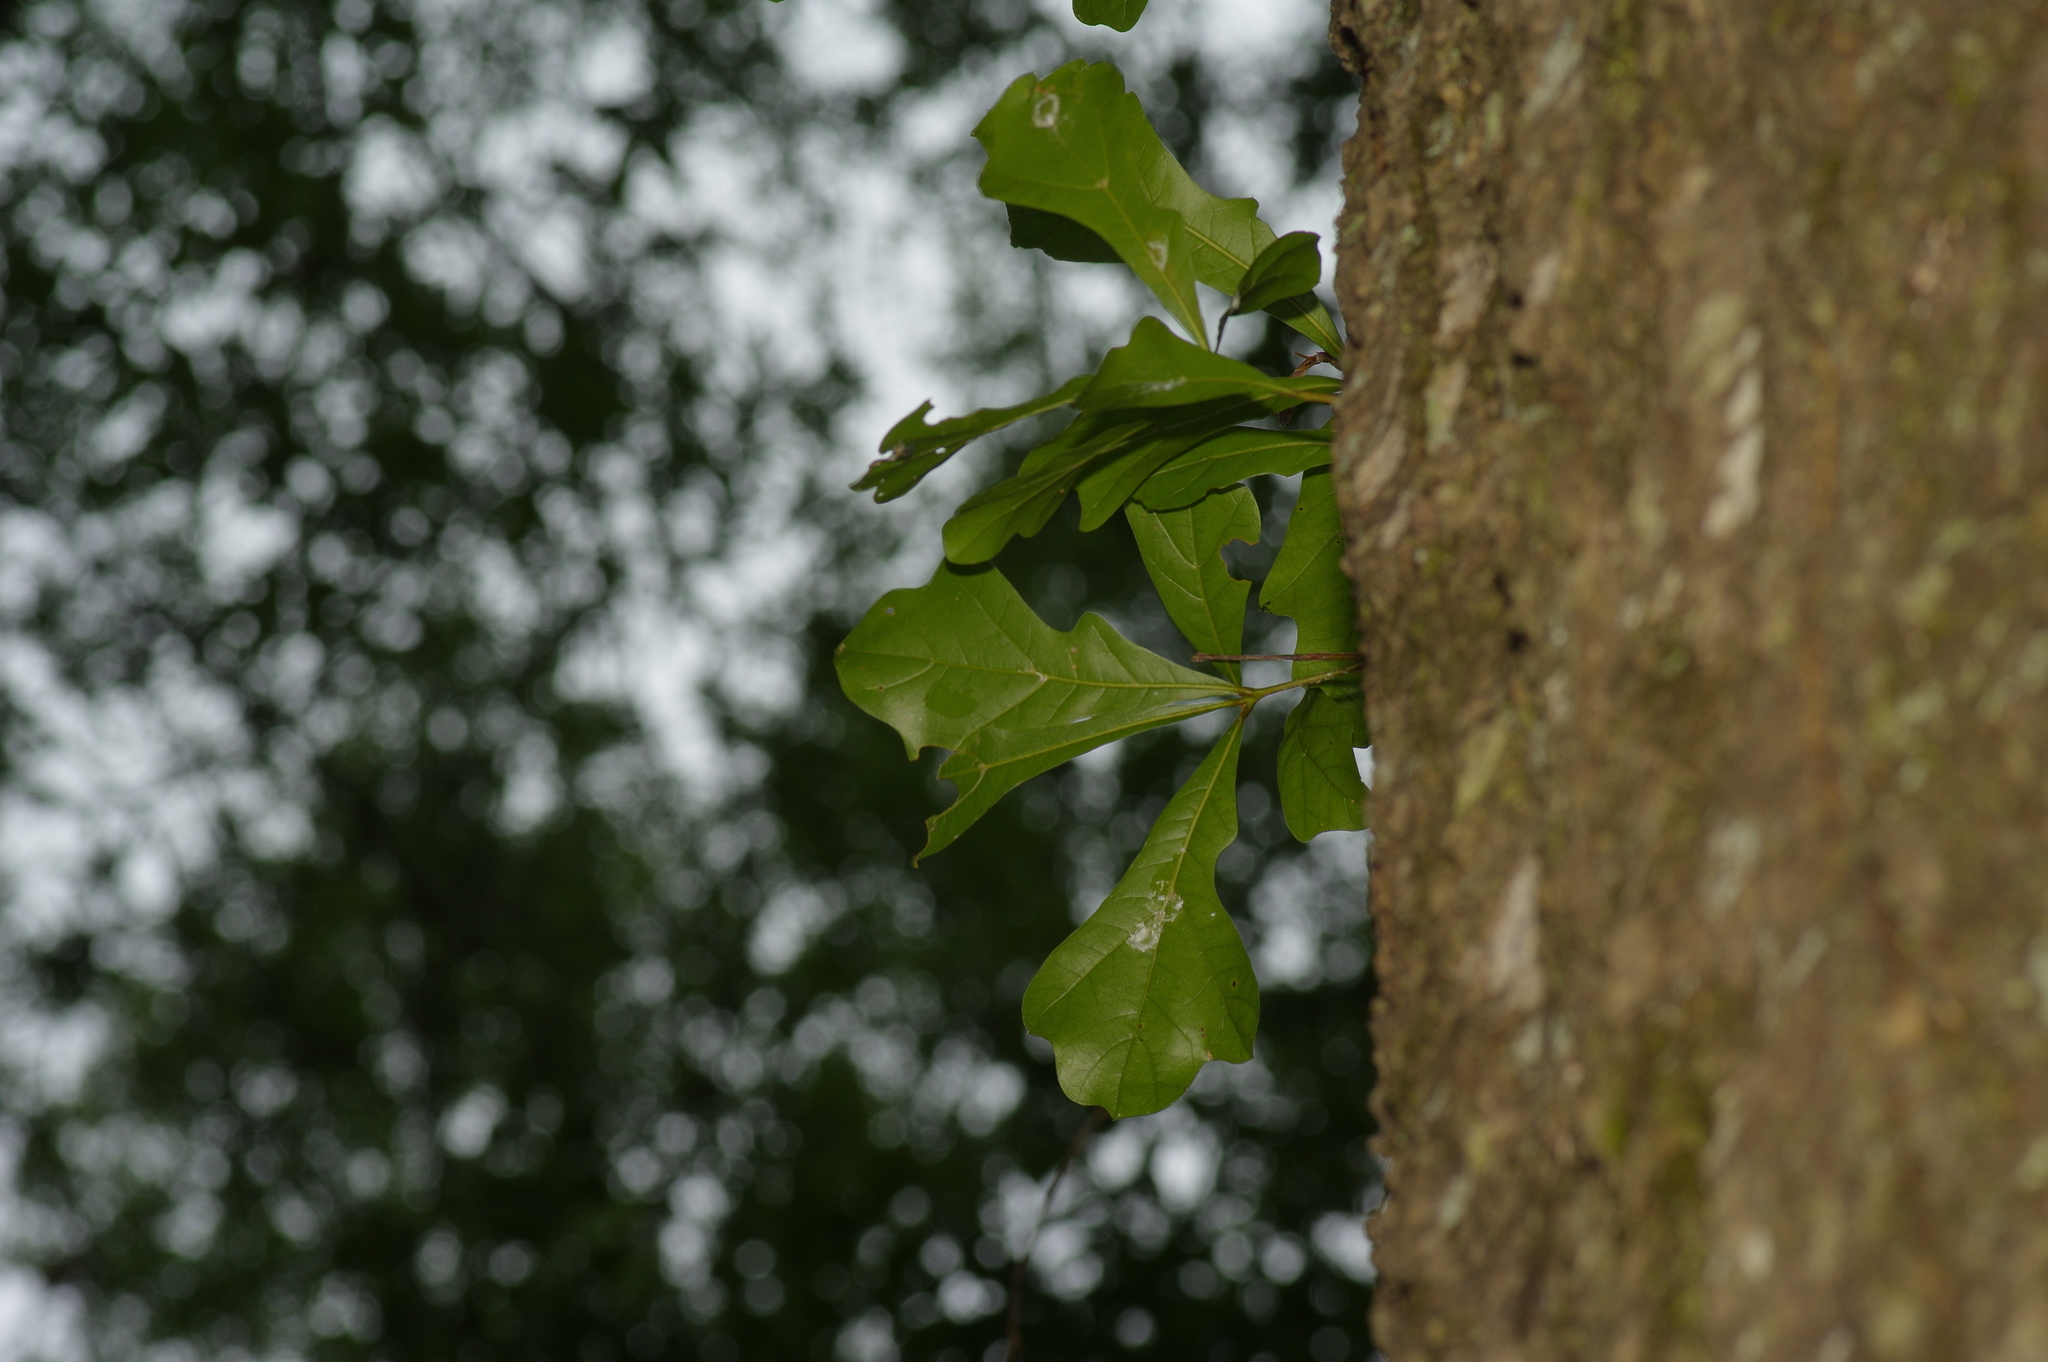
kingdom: Plantae
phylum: Tracheophyta
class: Magnoliopsida
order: Fagales
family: Fagaceae
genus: Quercus
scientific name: Quercus nigra
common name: Water oak
